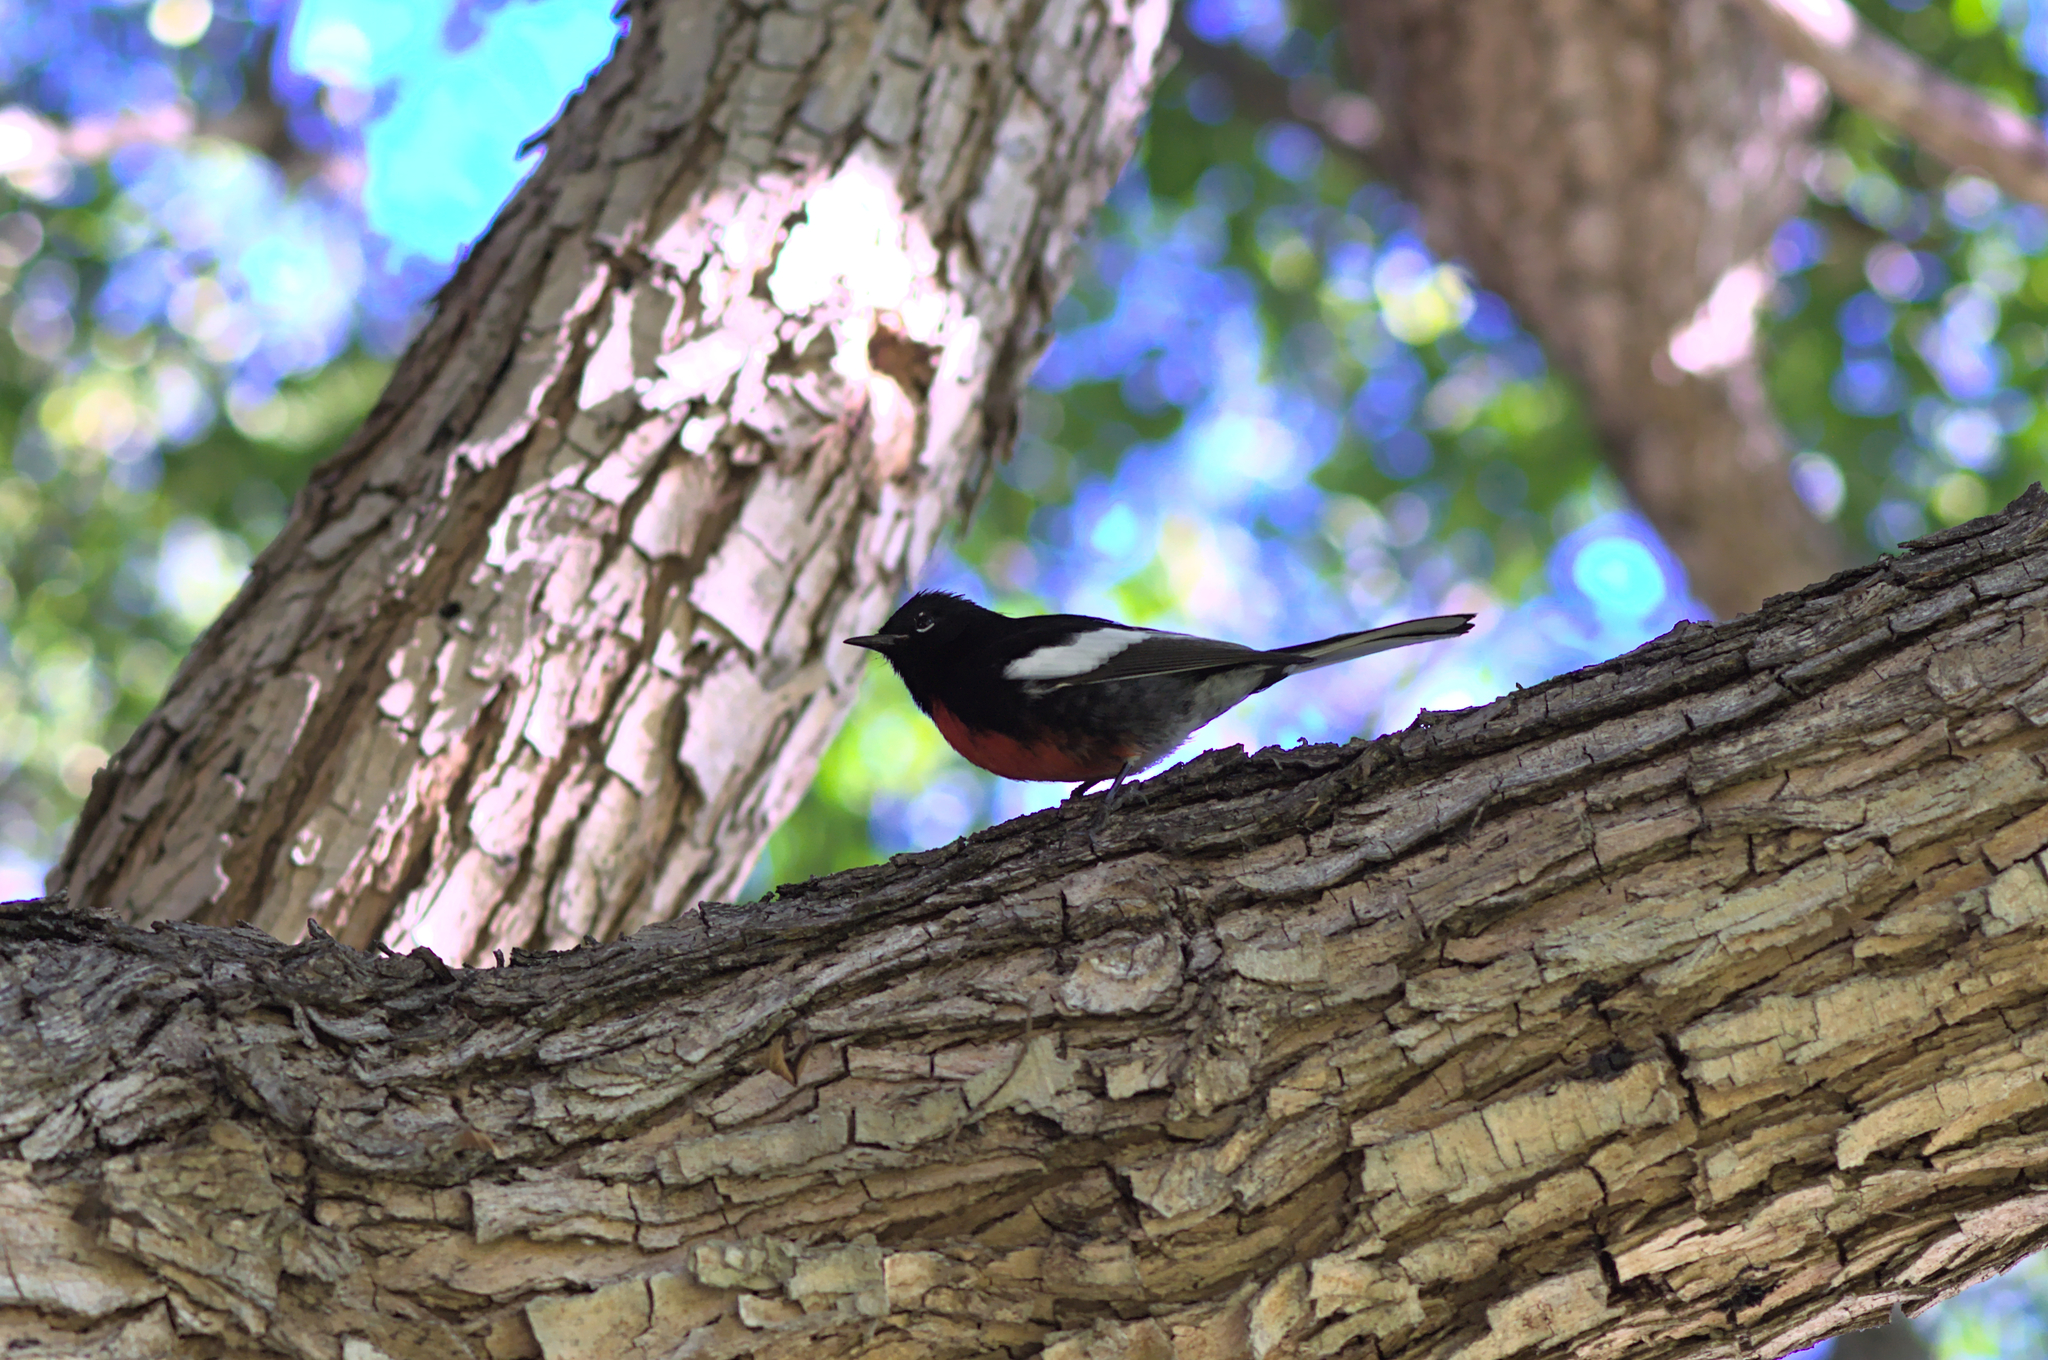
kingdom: Animalia
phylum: Chordata
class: Aves
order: Passeriformes
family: Parulidae
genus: Myioborus
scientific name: Myioborus pictus
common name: Painted whitestart
